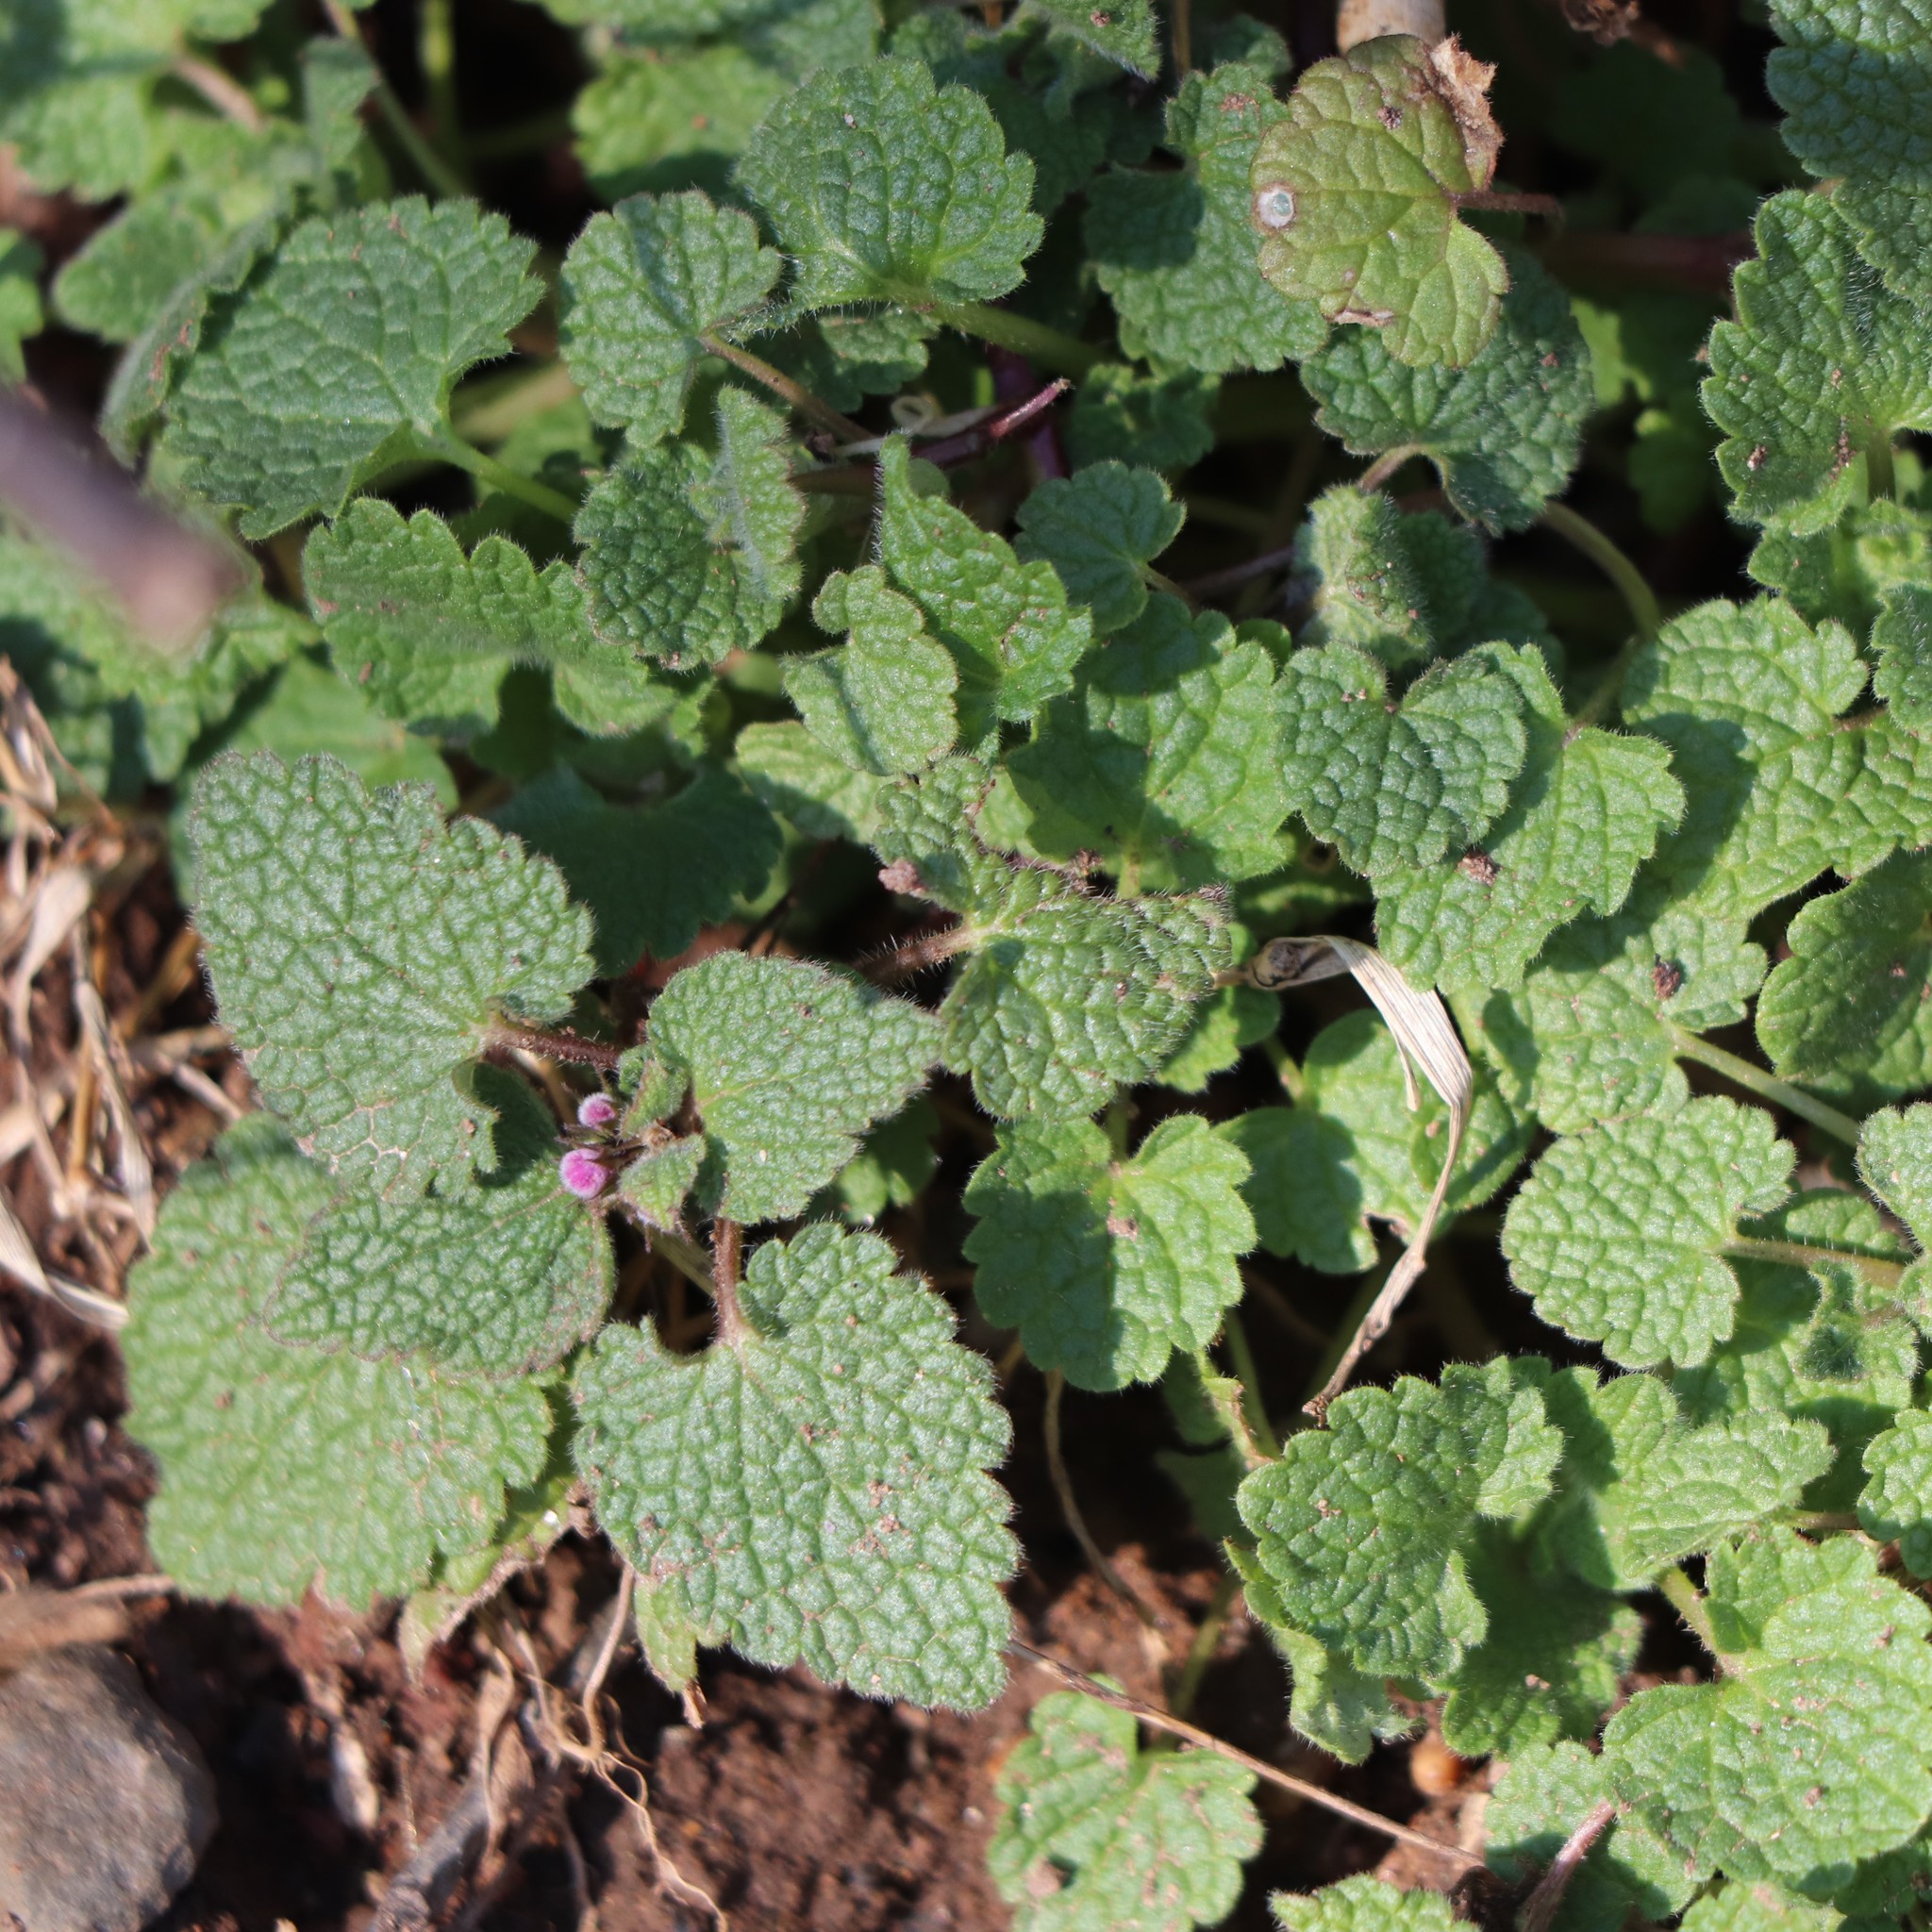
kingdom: Plantae
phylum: Tracheophyta
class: Magnoliopsida
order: Lamiales
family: Lamiaceae
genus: Lamium
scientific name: Lamium purpureum
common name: Red dead-nettle
